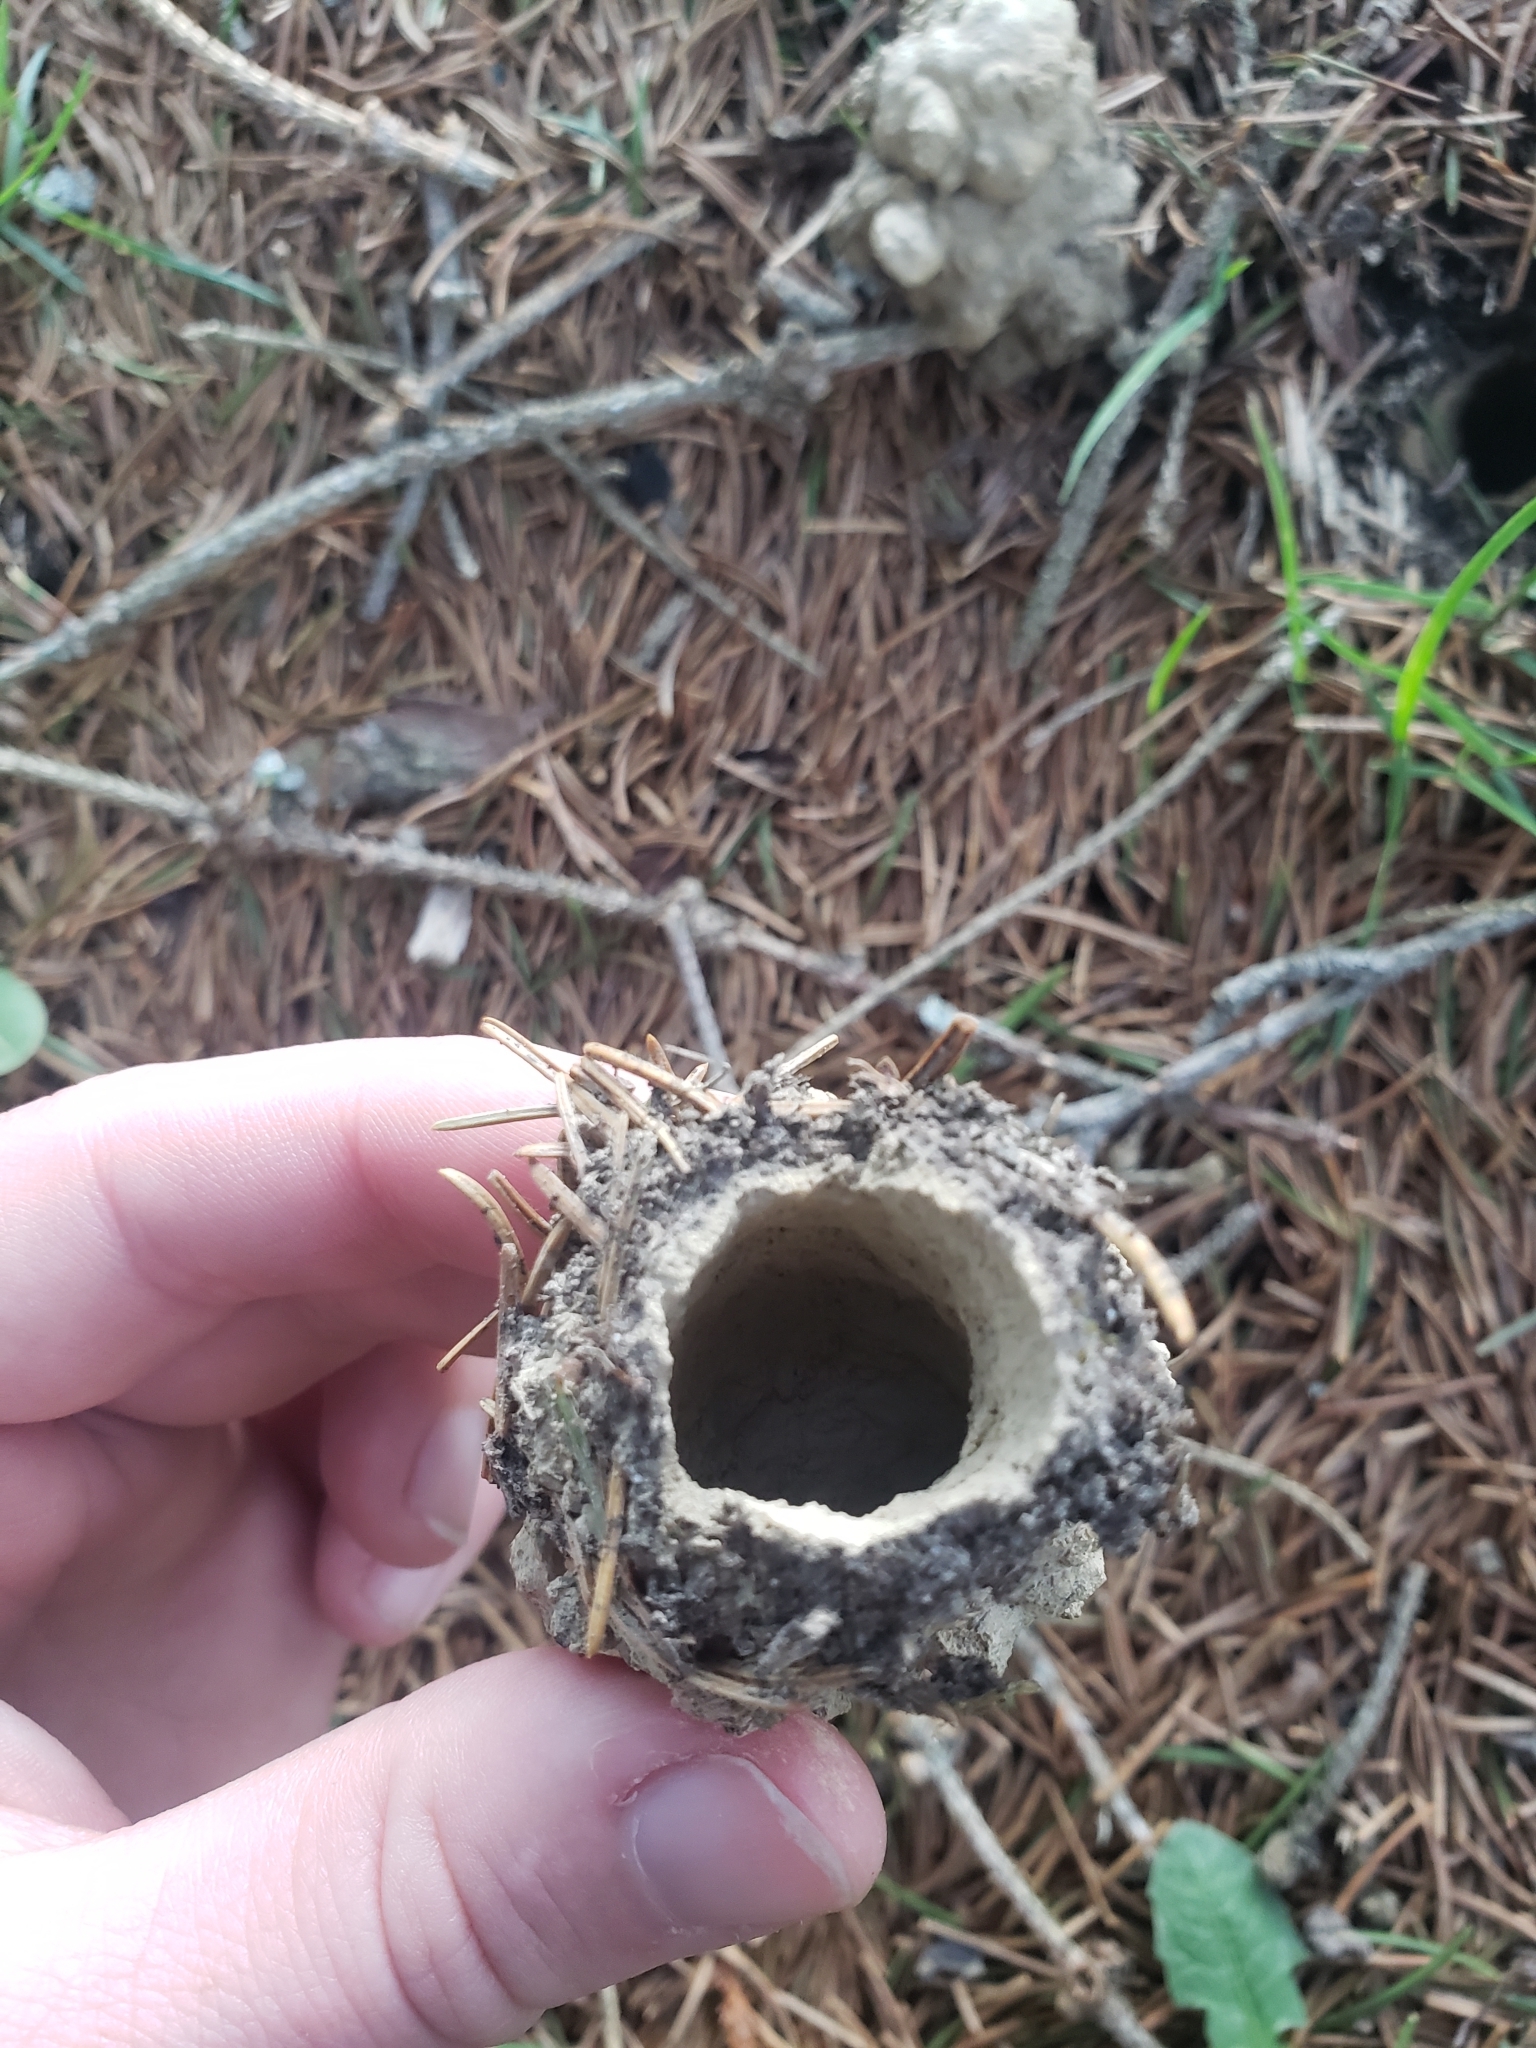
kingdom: Animalia
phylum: Arthropoda
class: Insecta
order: Hemiptera
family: Cicadidae
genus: Magicicada
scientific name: Magicicada
